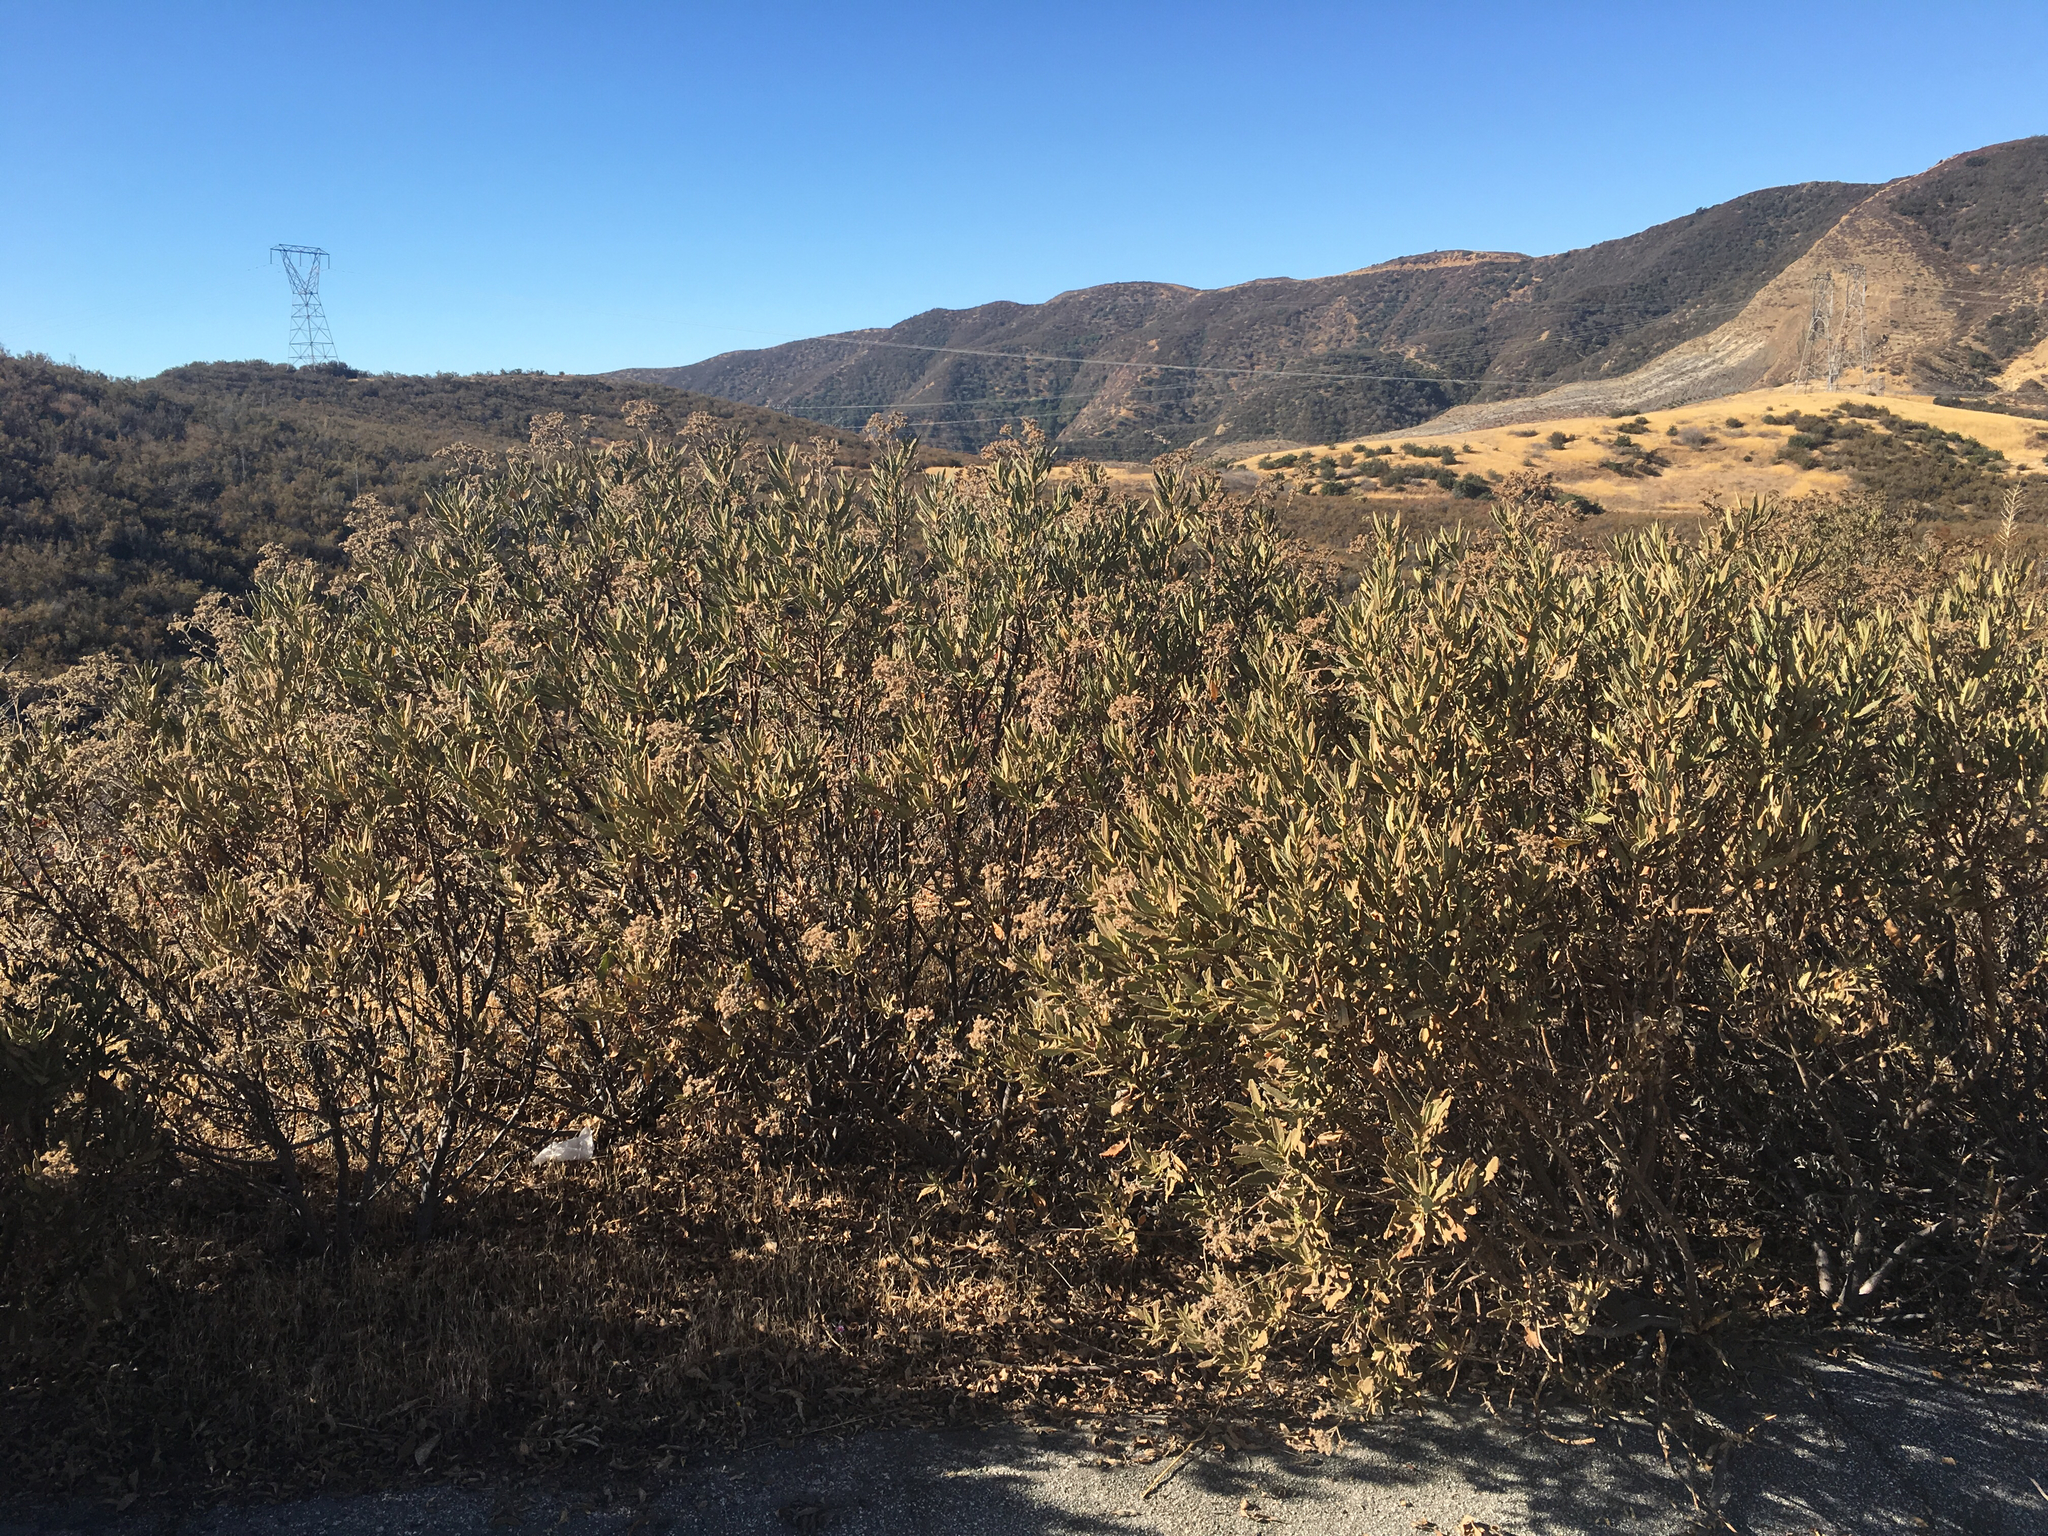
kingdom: Plantae
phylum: Tracheophyta
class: Magnoliopsida
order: Boraginales
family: Namaceae
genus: Eriodictyon
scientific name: Eriodictyon crassifolium
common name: Thick-leaf yerba-santa
